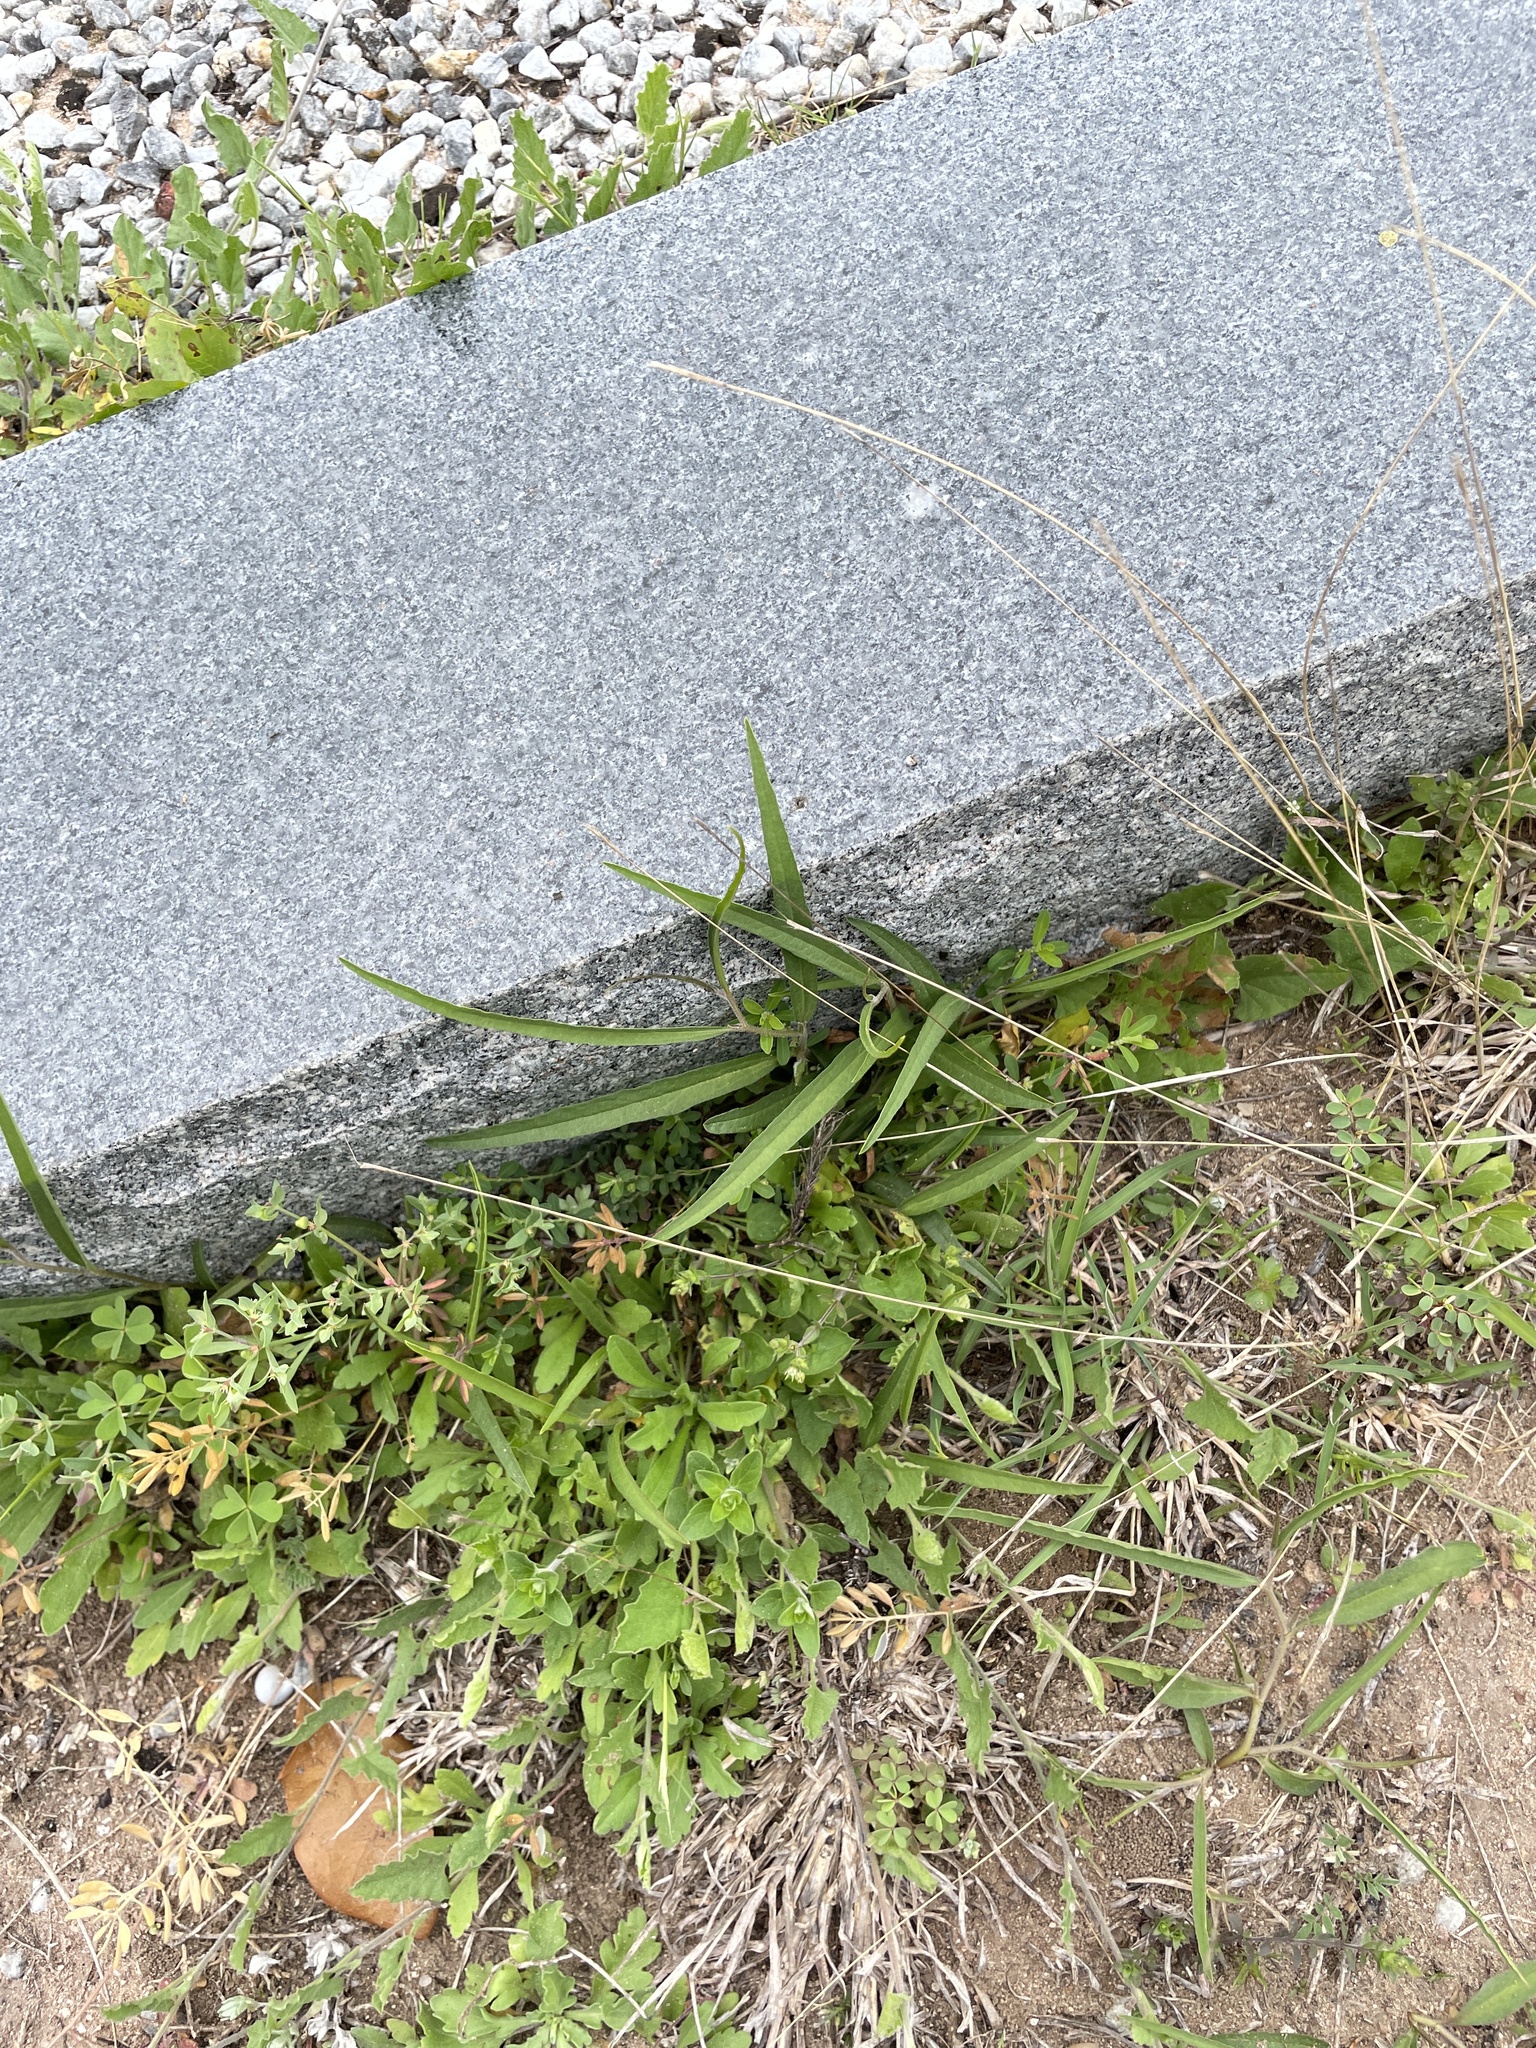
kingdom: Plantae
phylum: Tracheophyta
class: Magnoliopsida
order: Piperales
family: Aristolochiaceae
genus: Aristolochia
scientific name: Aristolochia erecta
